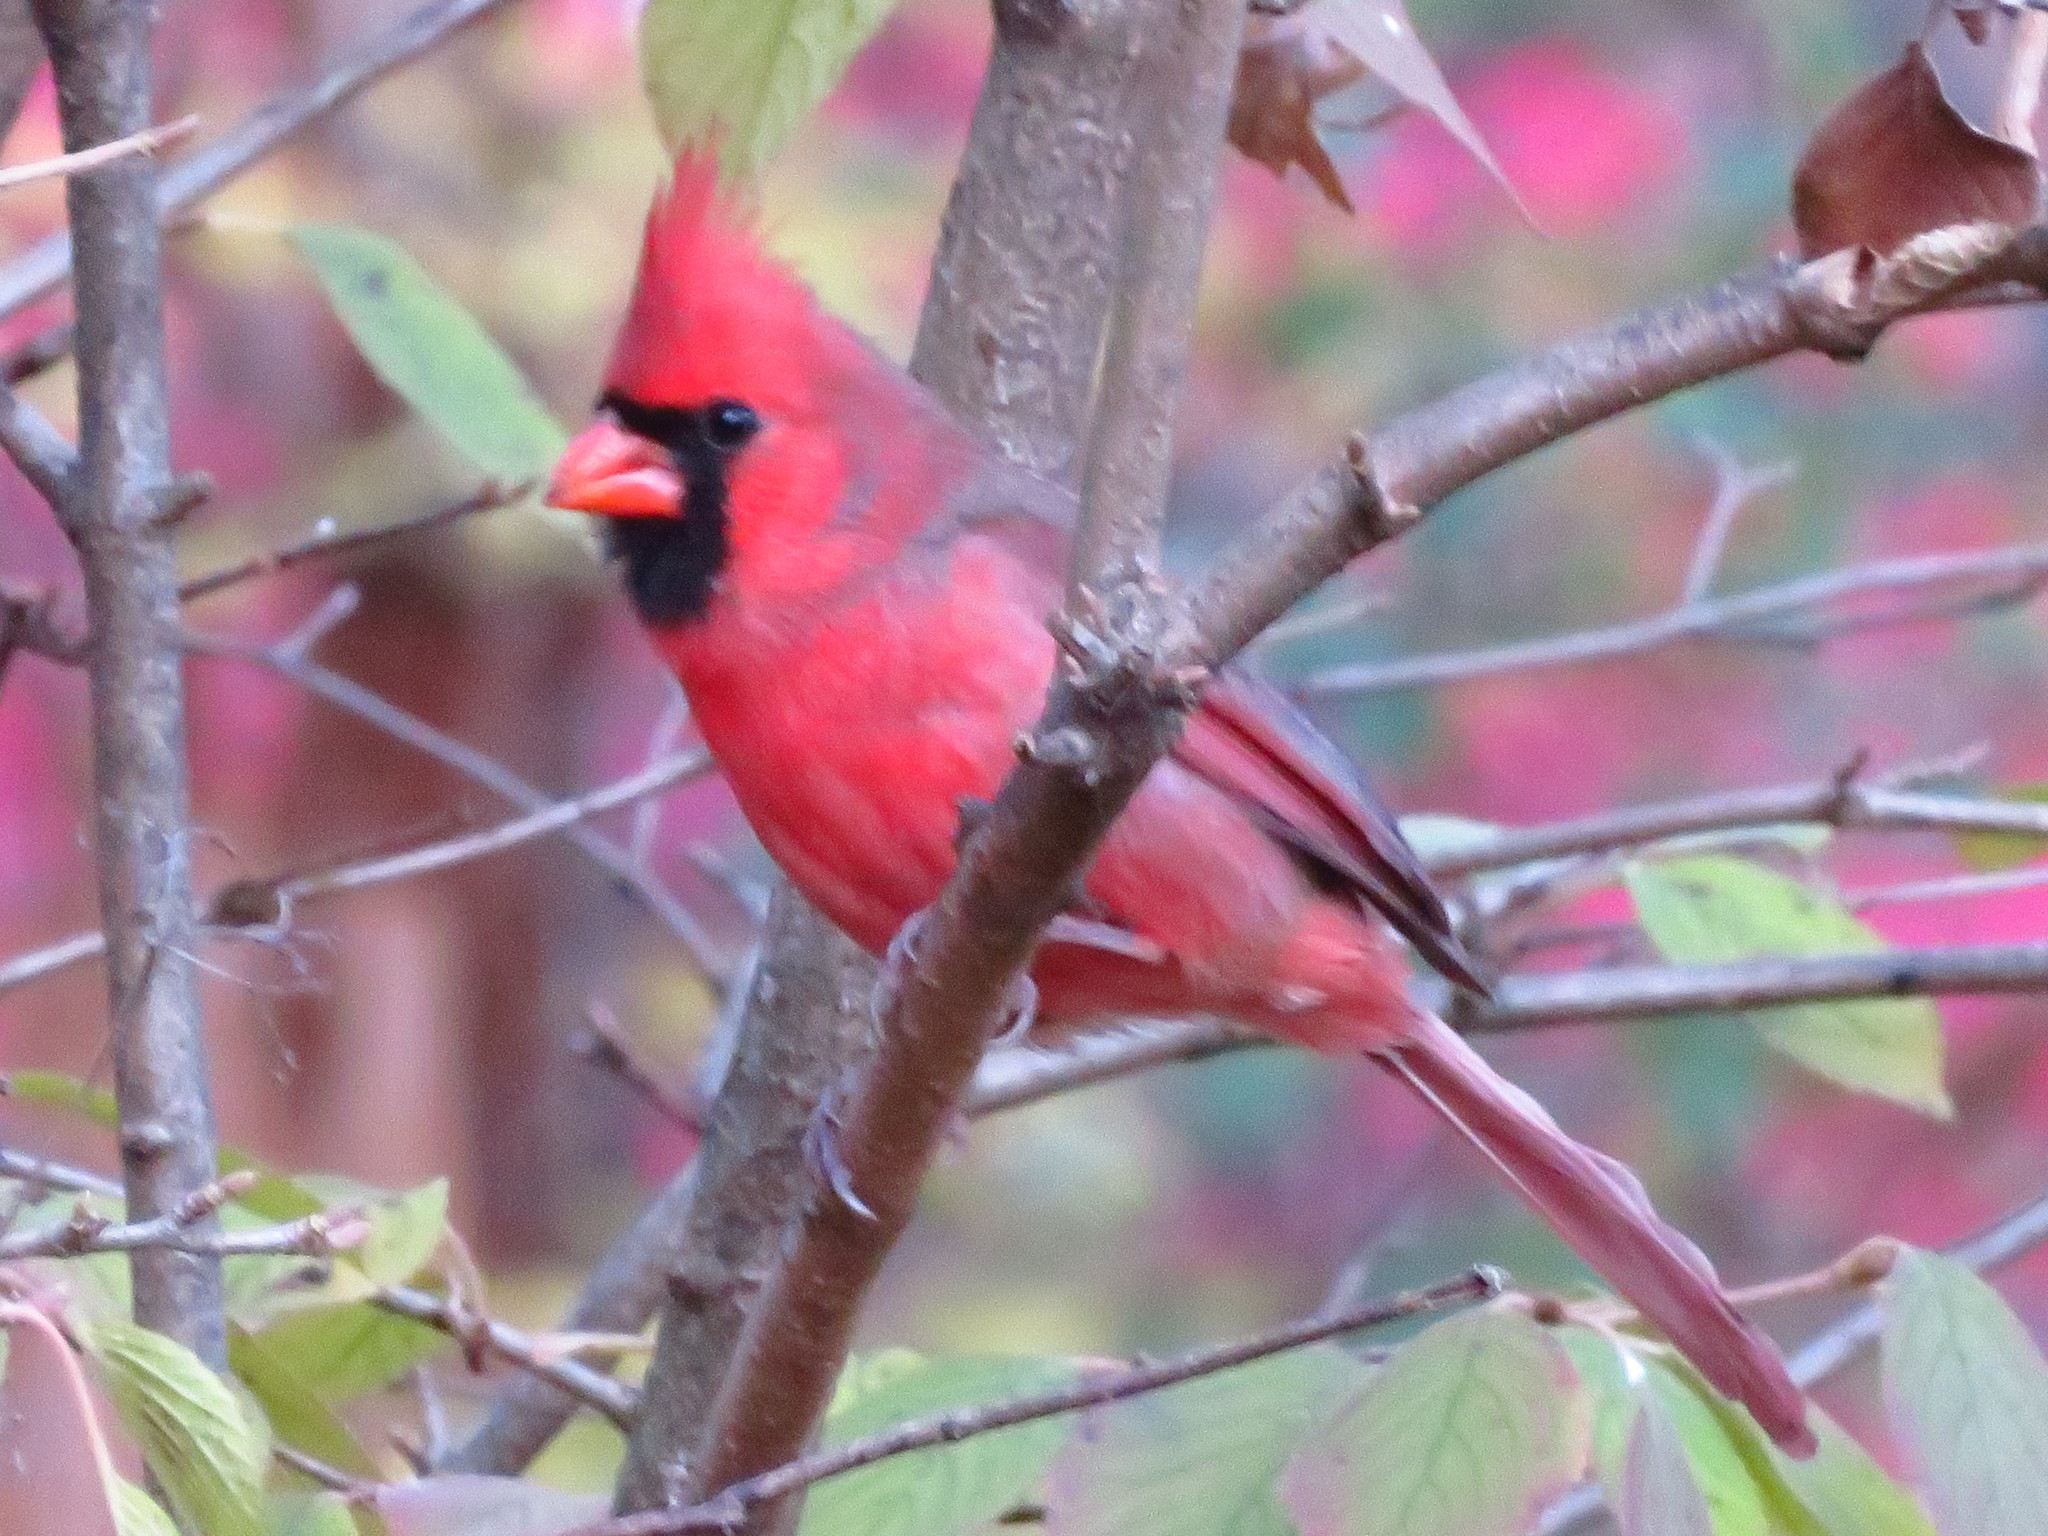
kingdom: Animalia
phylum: Chordata
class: Aves
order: Passeriformes
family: Cardinalidae
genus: Cardinalis
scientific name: Cardinalis cardinalis
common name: Northern cardinal
